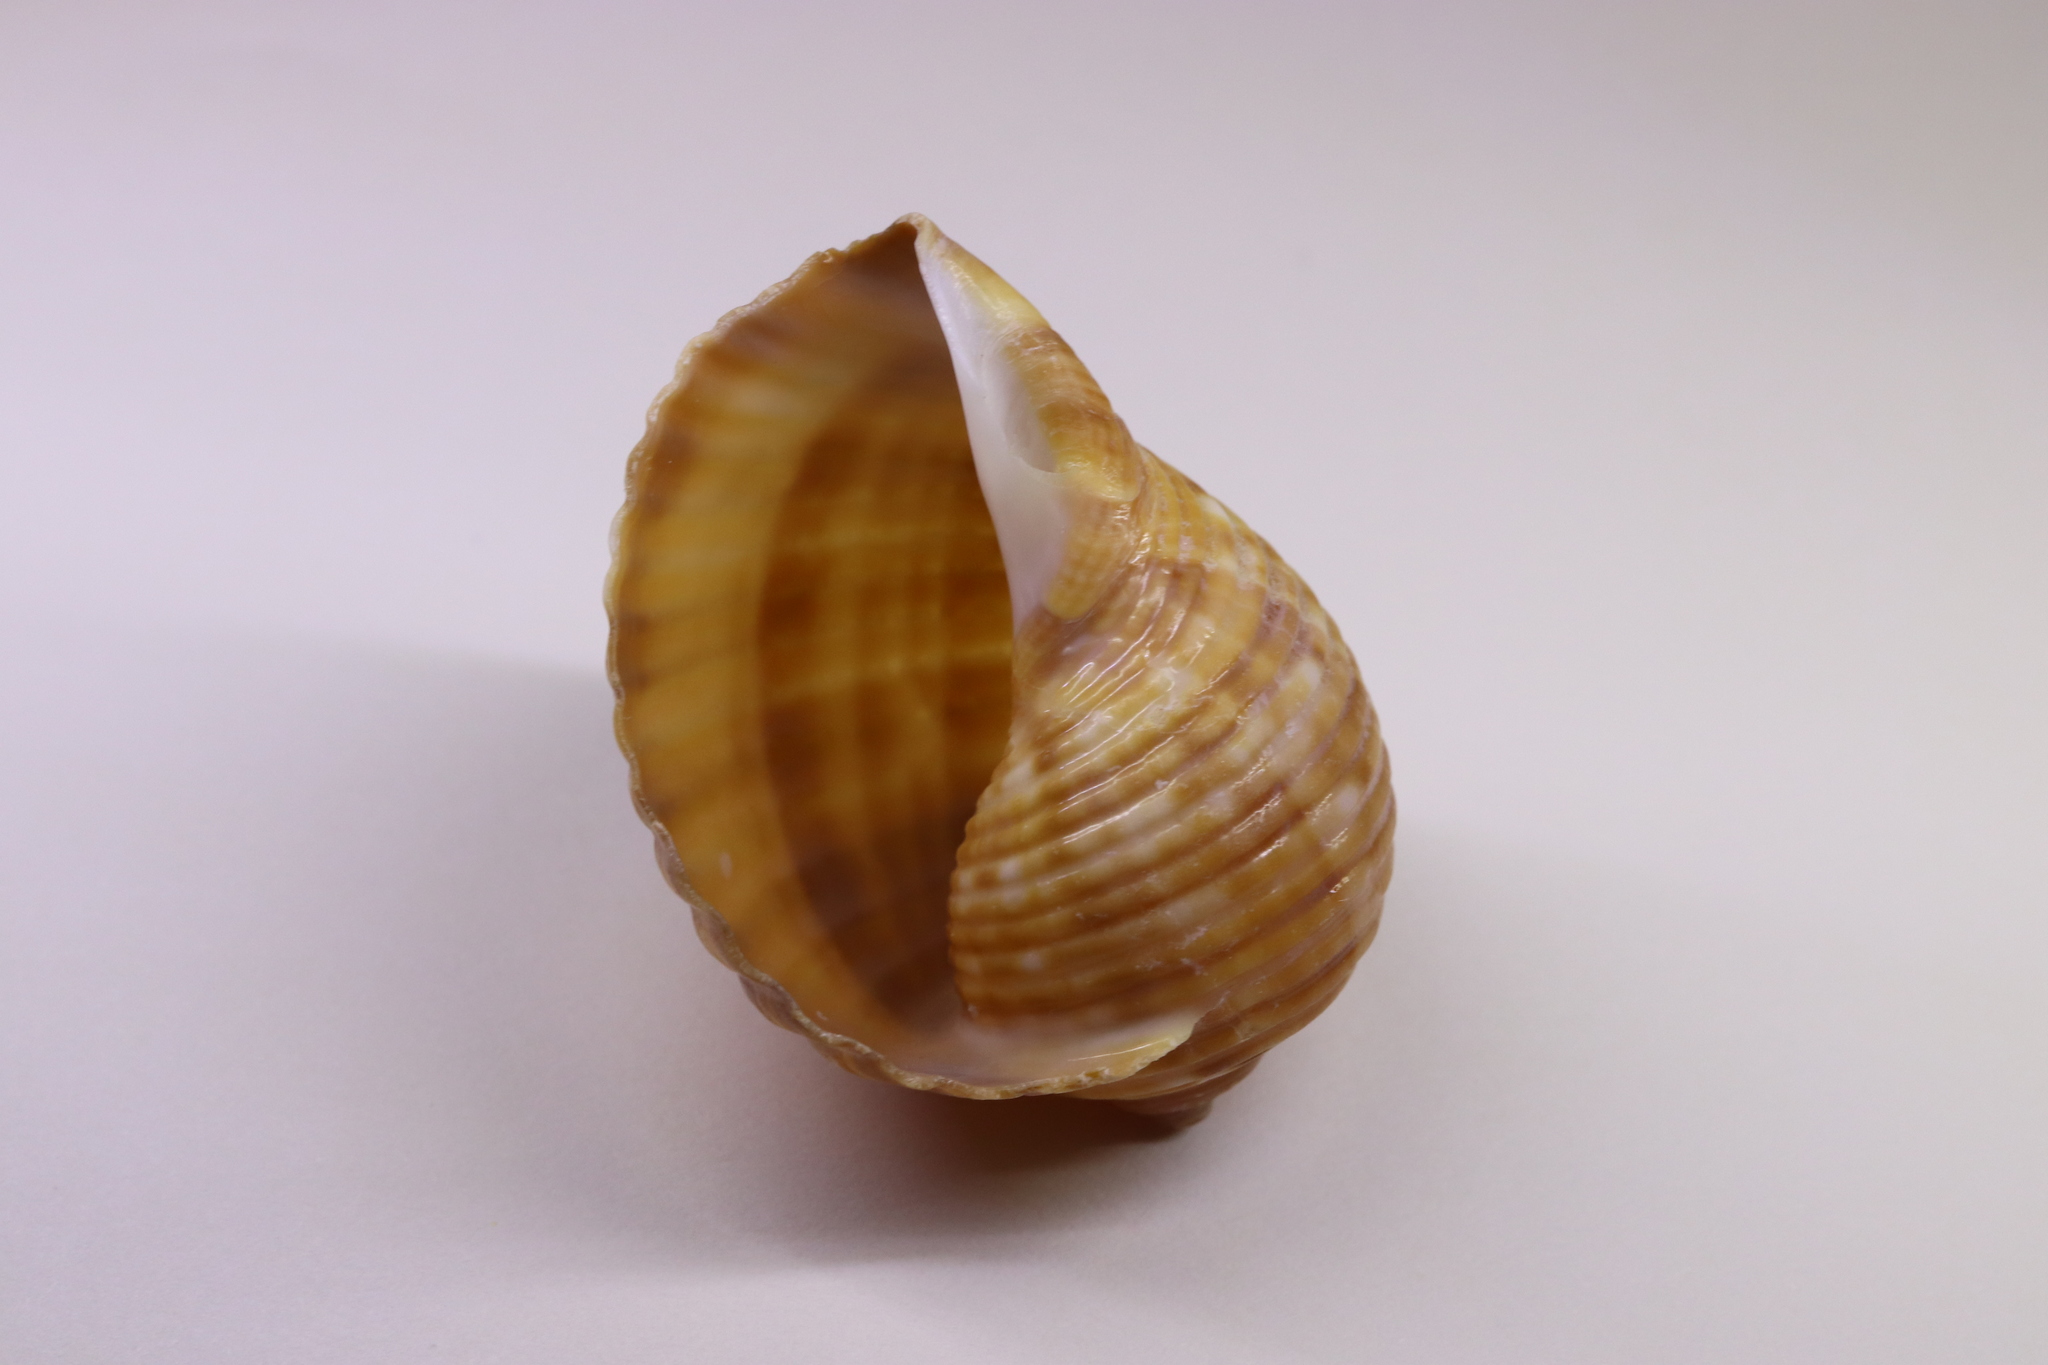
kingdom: Animalia
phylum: Mollusca
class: Gastropoda
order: Littorinimorpha
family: Tonnidae
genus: Tonna
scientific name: Tonna luteostoma
